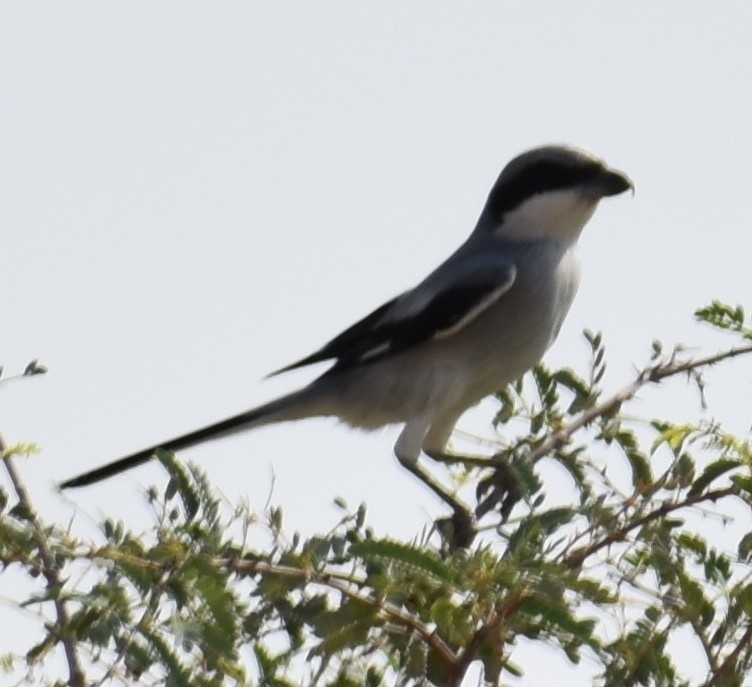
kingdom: Animalia
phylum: Chordata
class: Aves
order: Passeriformes
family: Laniidae
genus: Lanius
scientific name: Lanius excubitor
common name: Great grey shrike
